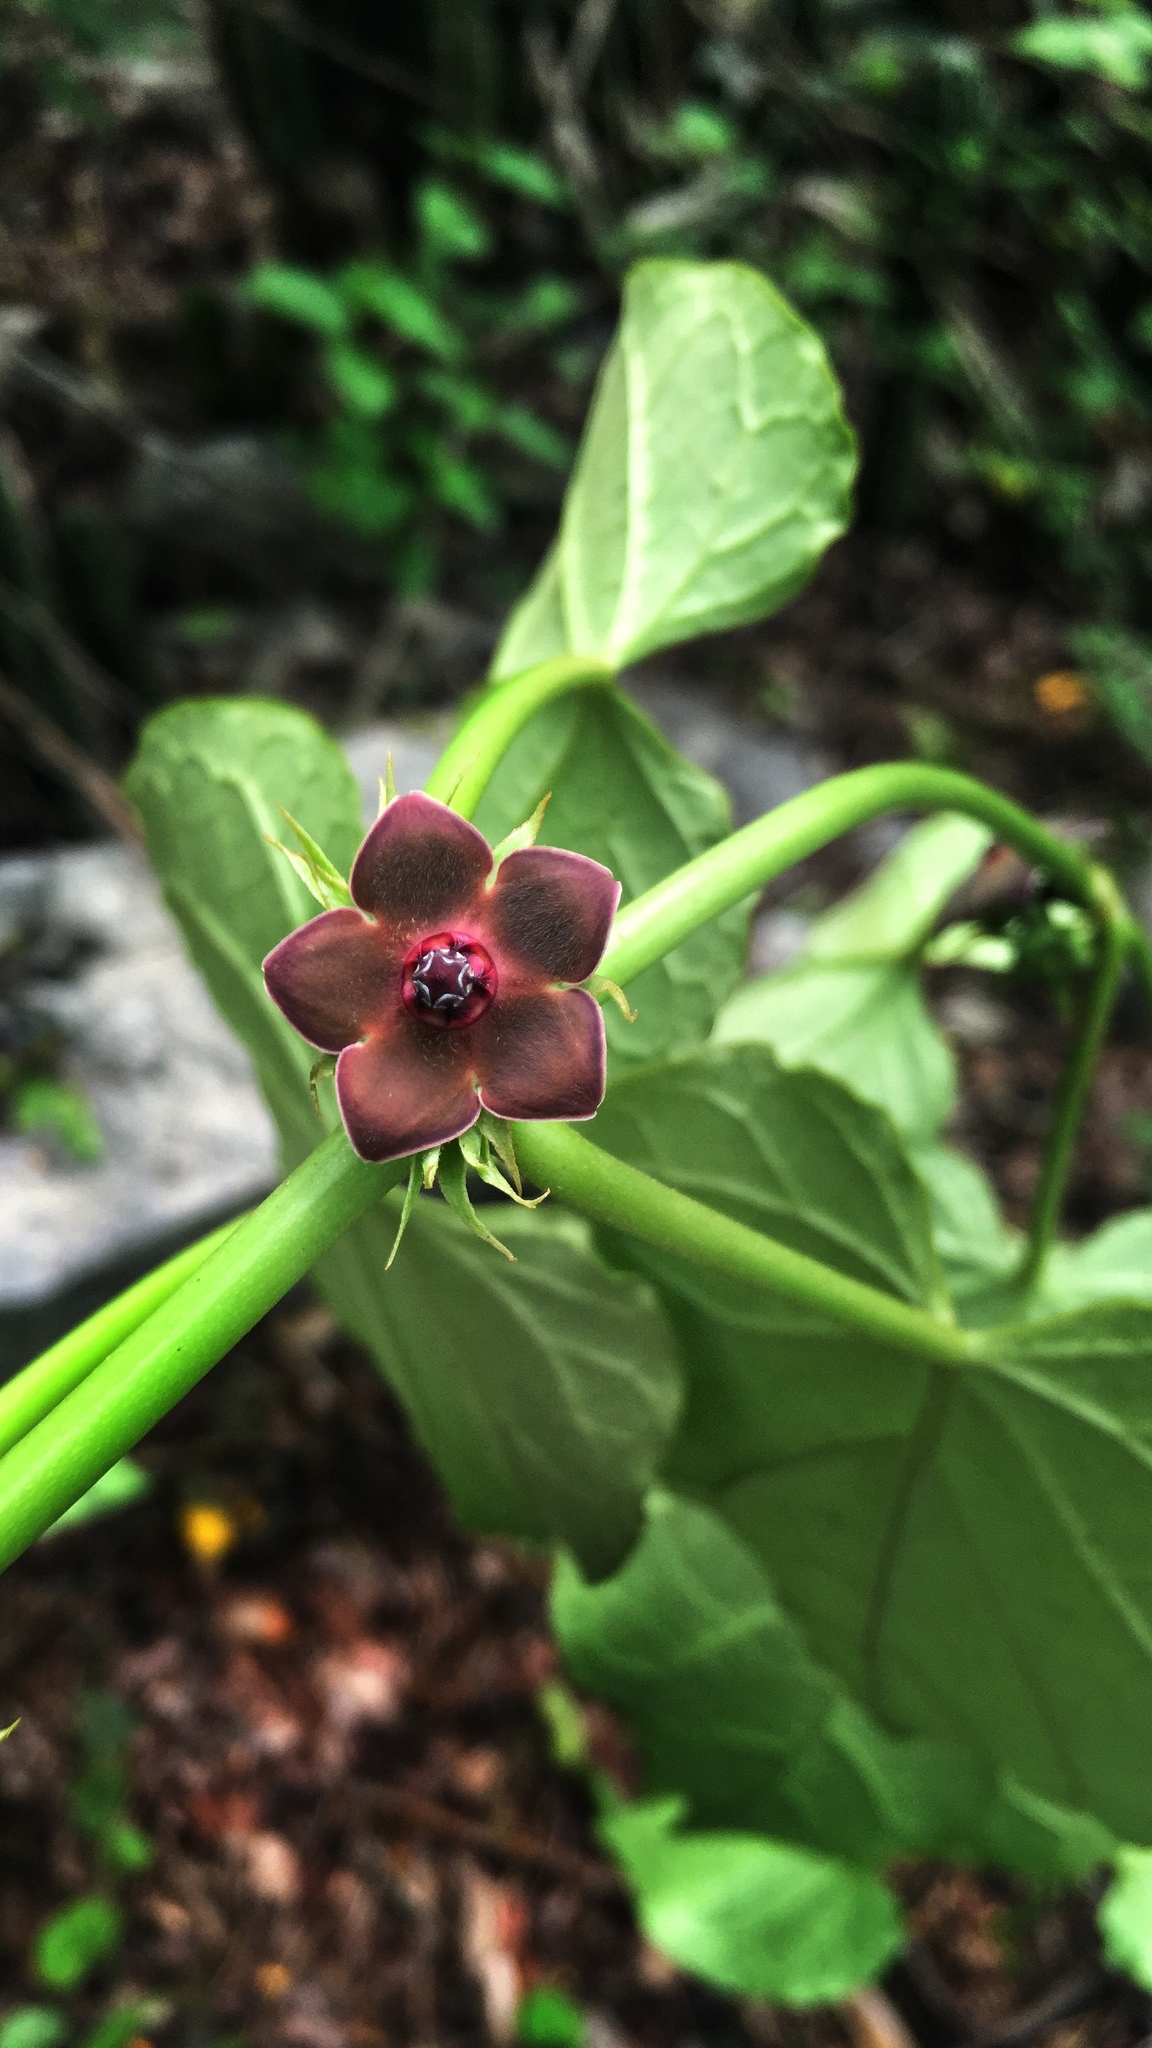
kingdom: Plantae
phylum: Tracheophyta
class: Magnoliopsida
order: Gentianales
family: Apocynaceae
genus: Suberogerens
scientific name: Suberogerens cyclophylla
